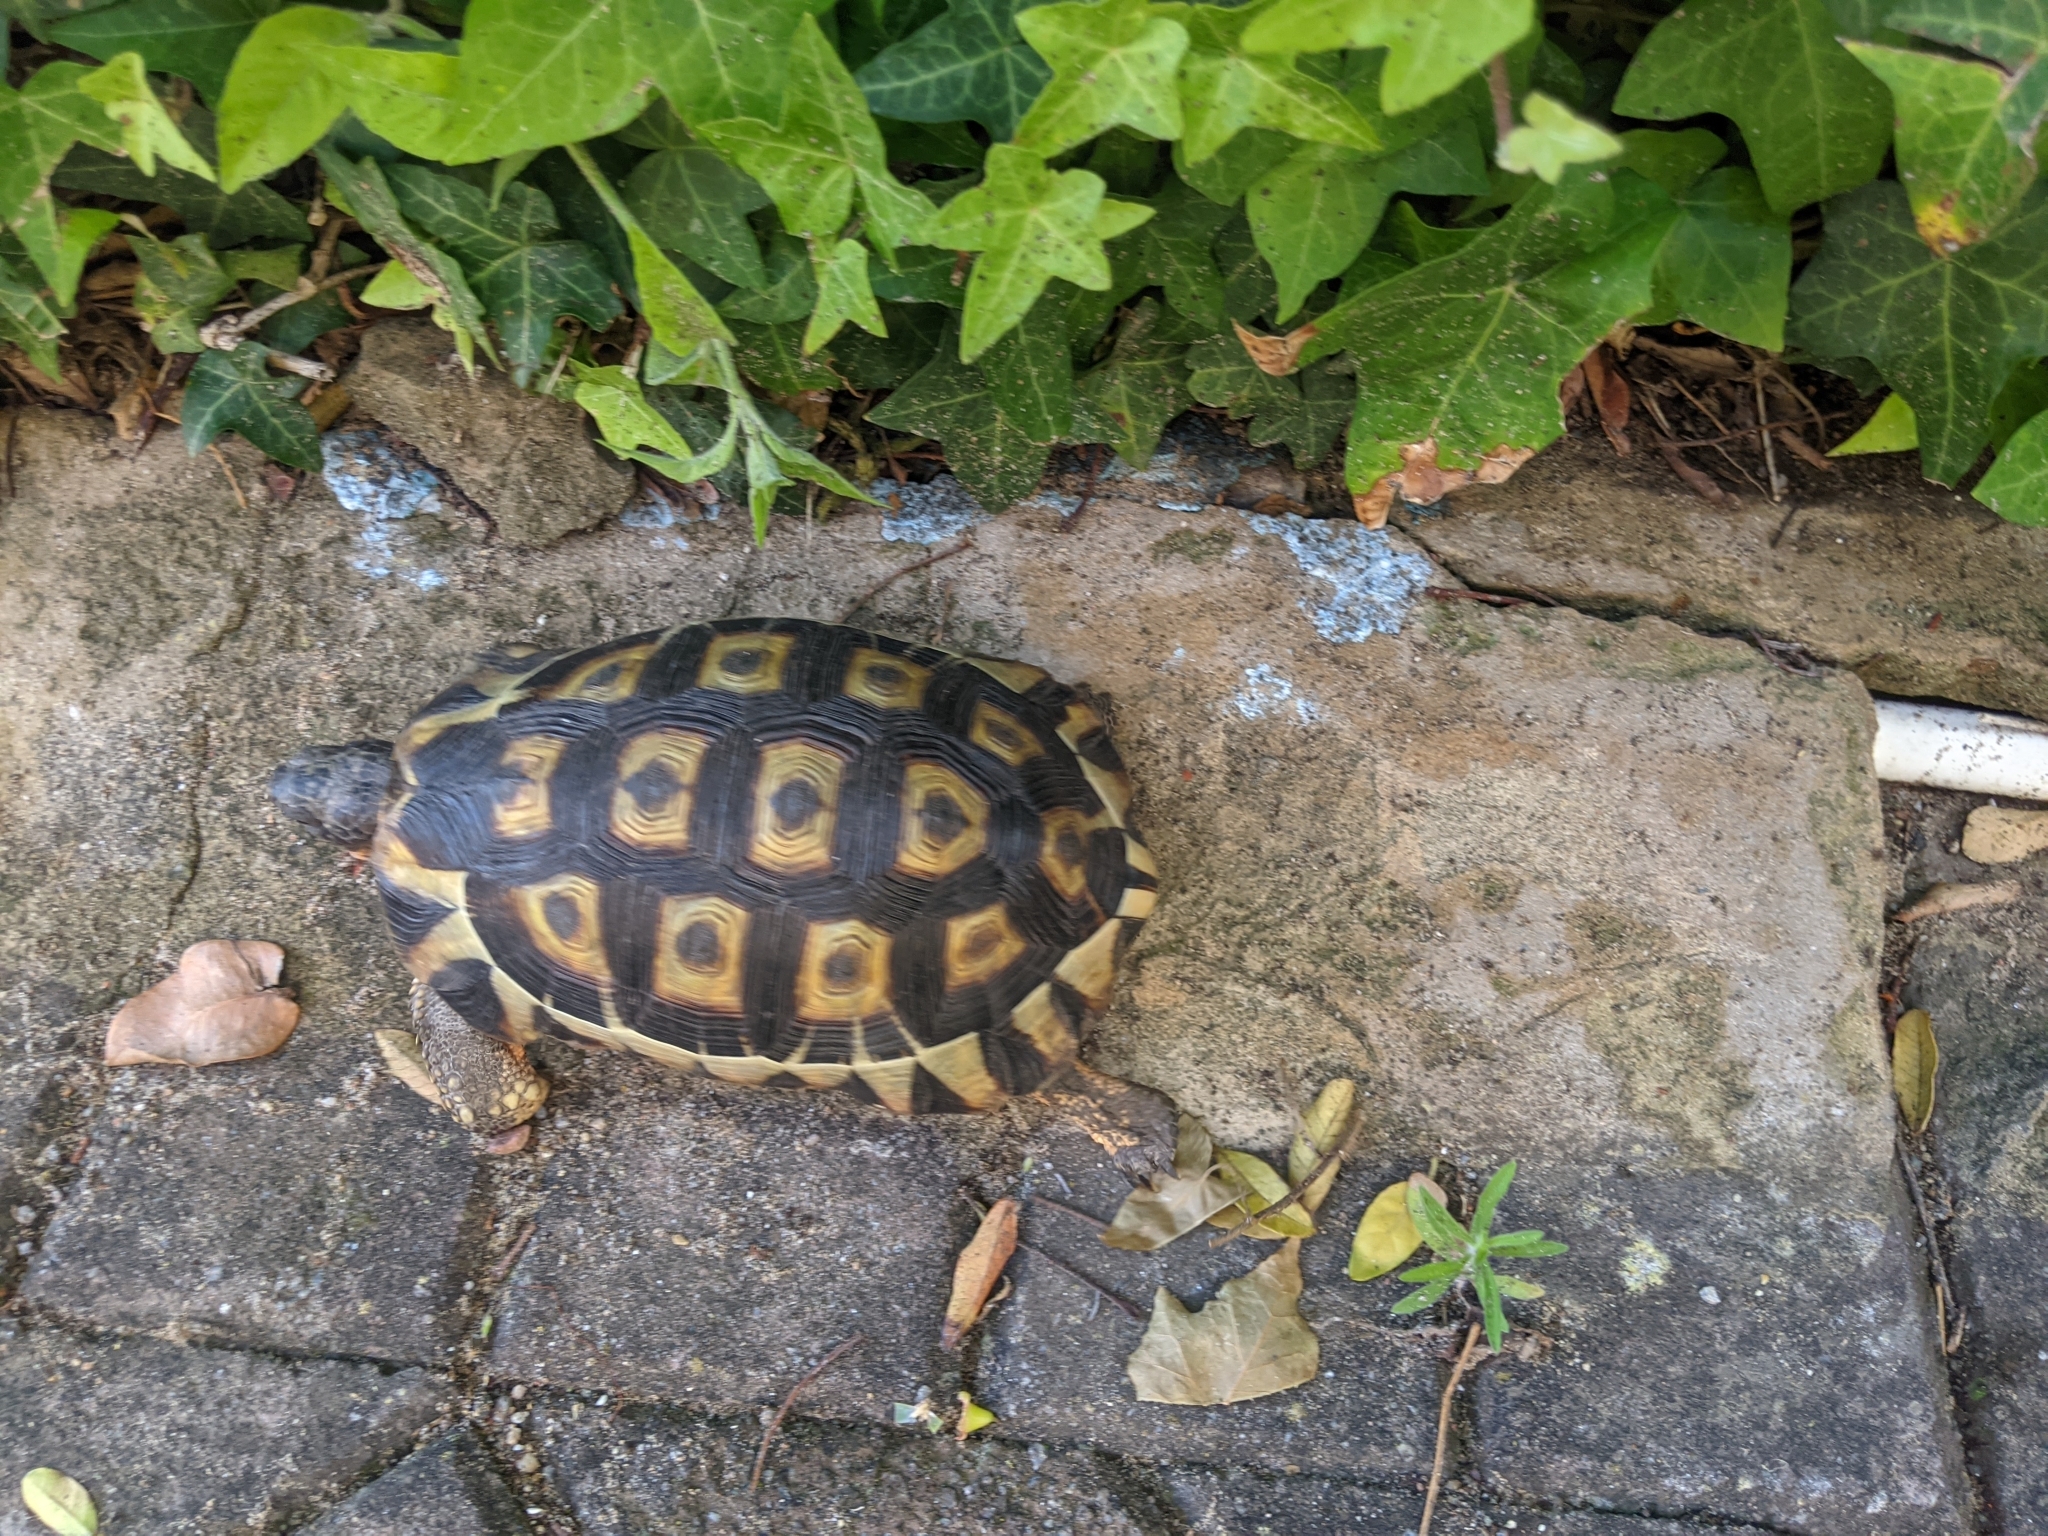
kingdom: Animalia
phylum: Chordata
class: Testudines
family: Testudinidae
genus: Chersina
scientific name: Chersina angulata
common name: South african bowsprit tortoise
